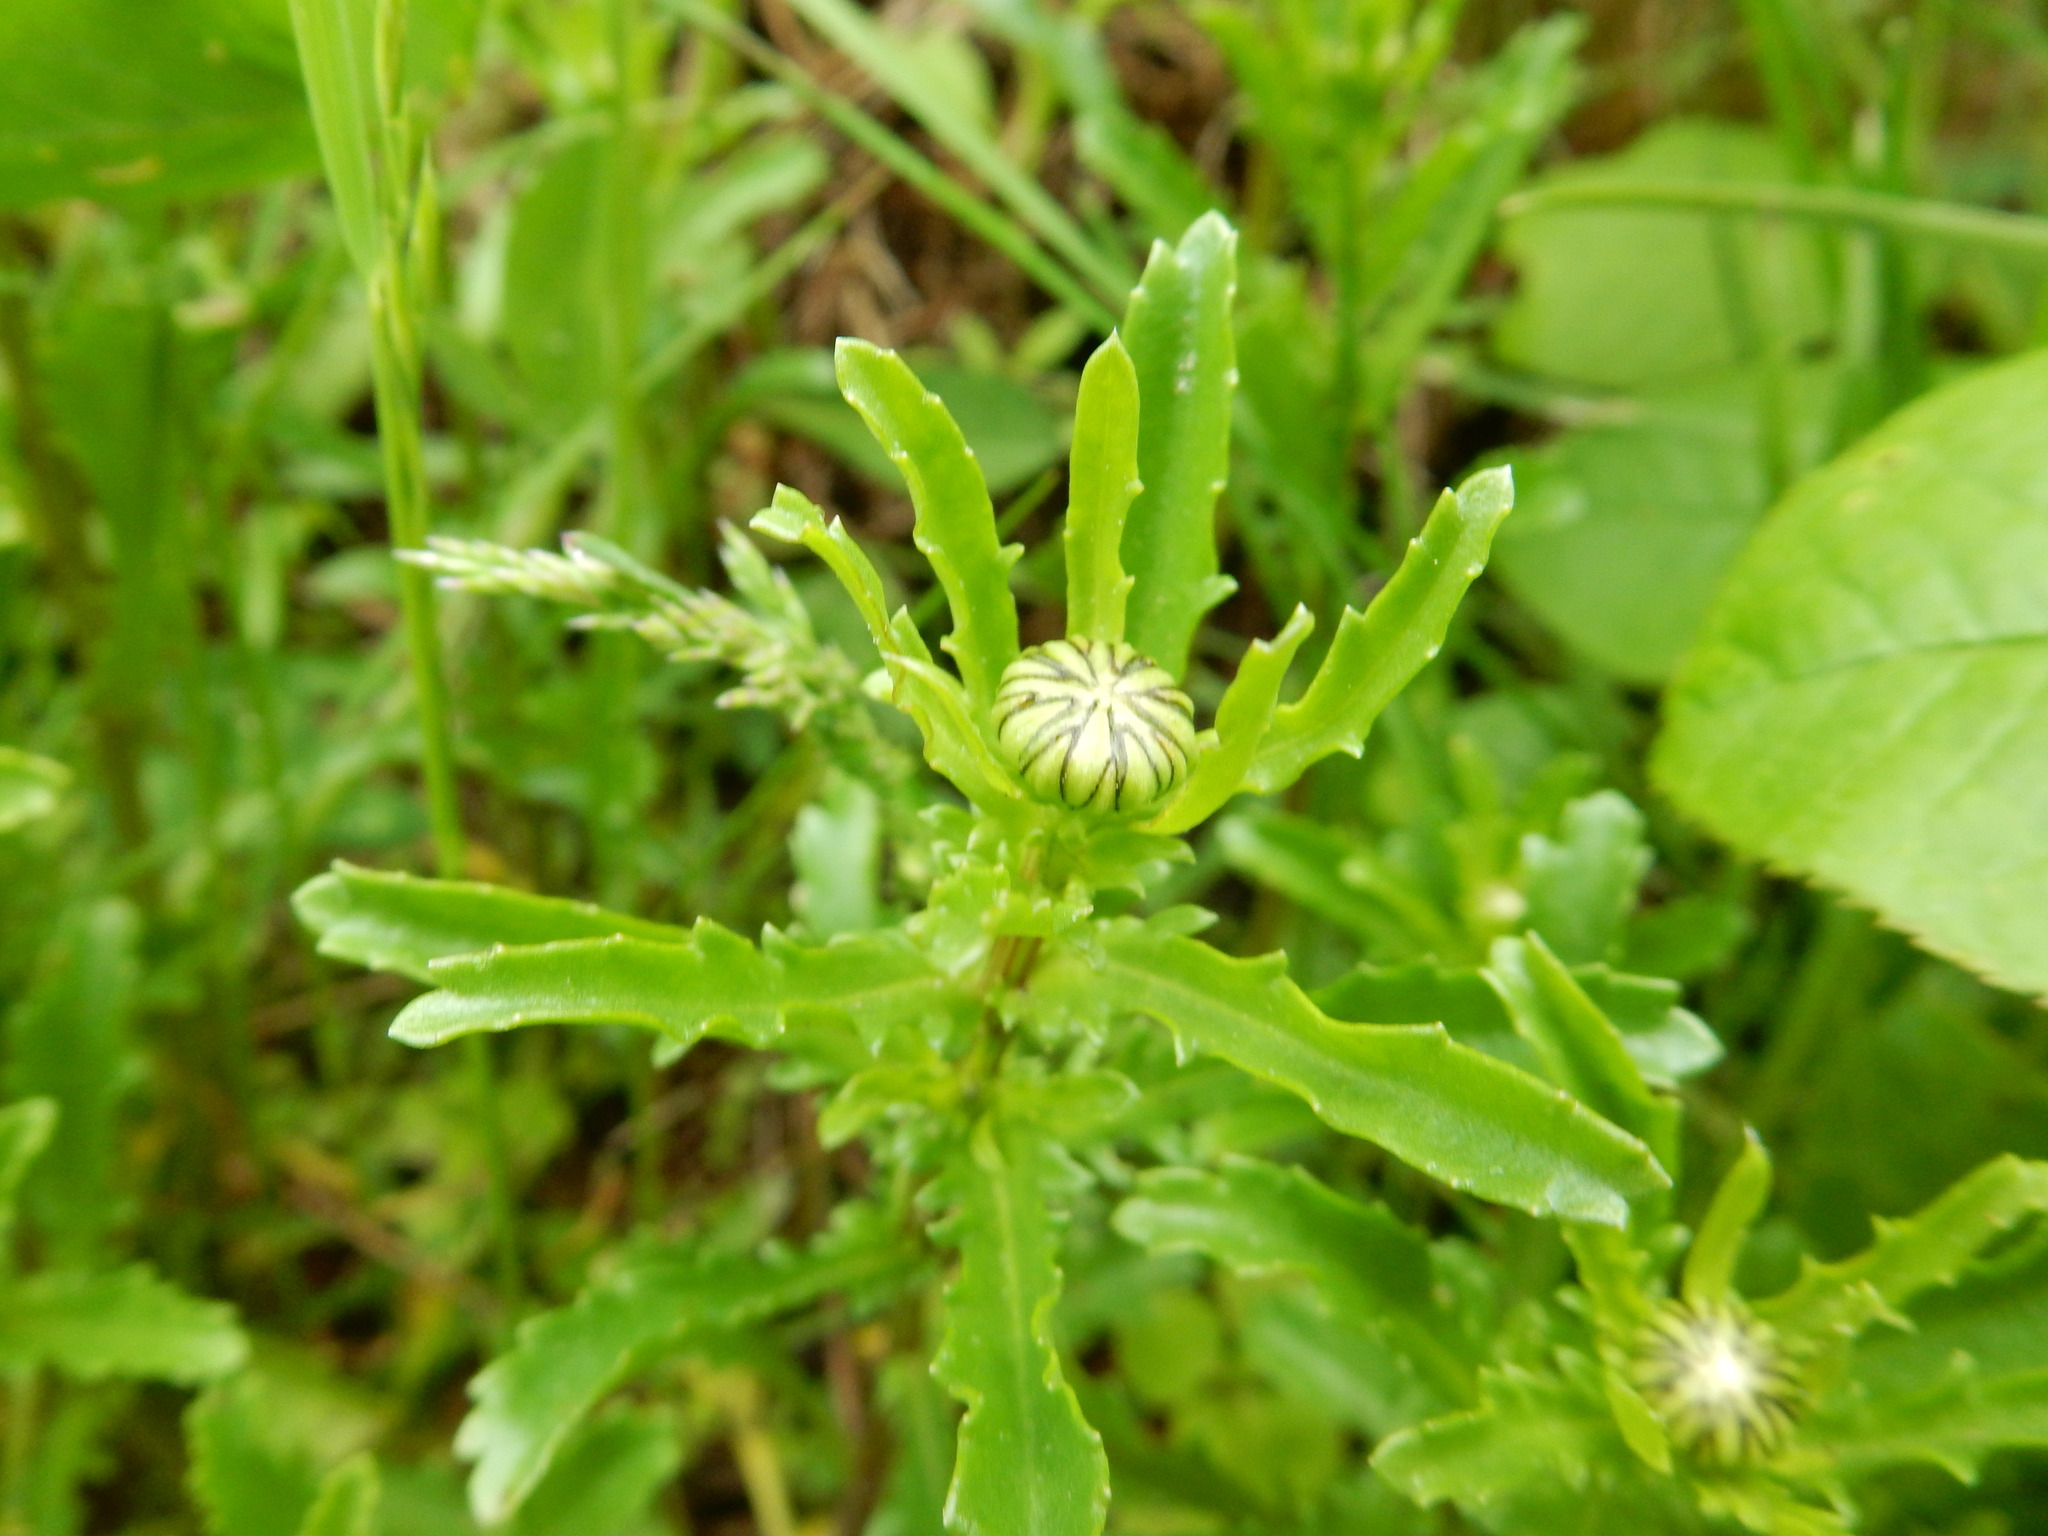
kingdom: Plantae
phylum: Tracheophyta
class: Magnoliopsida
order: Asterales
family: Asteraceae
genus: Leucanthemum
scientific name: Leucanthemum vulgare
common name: Oxeye daisy
